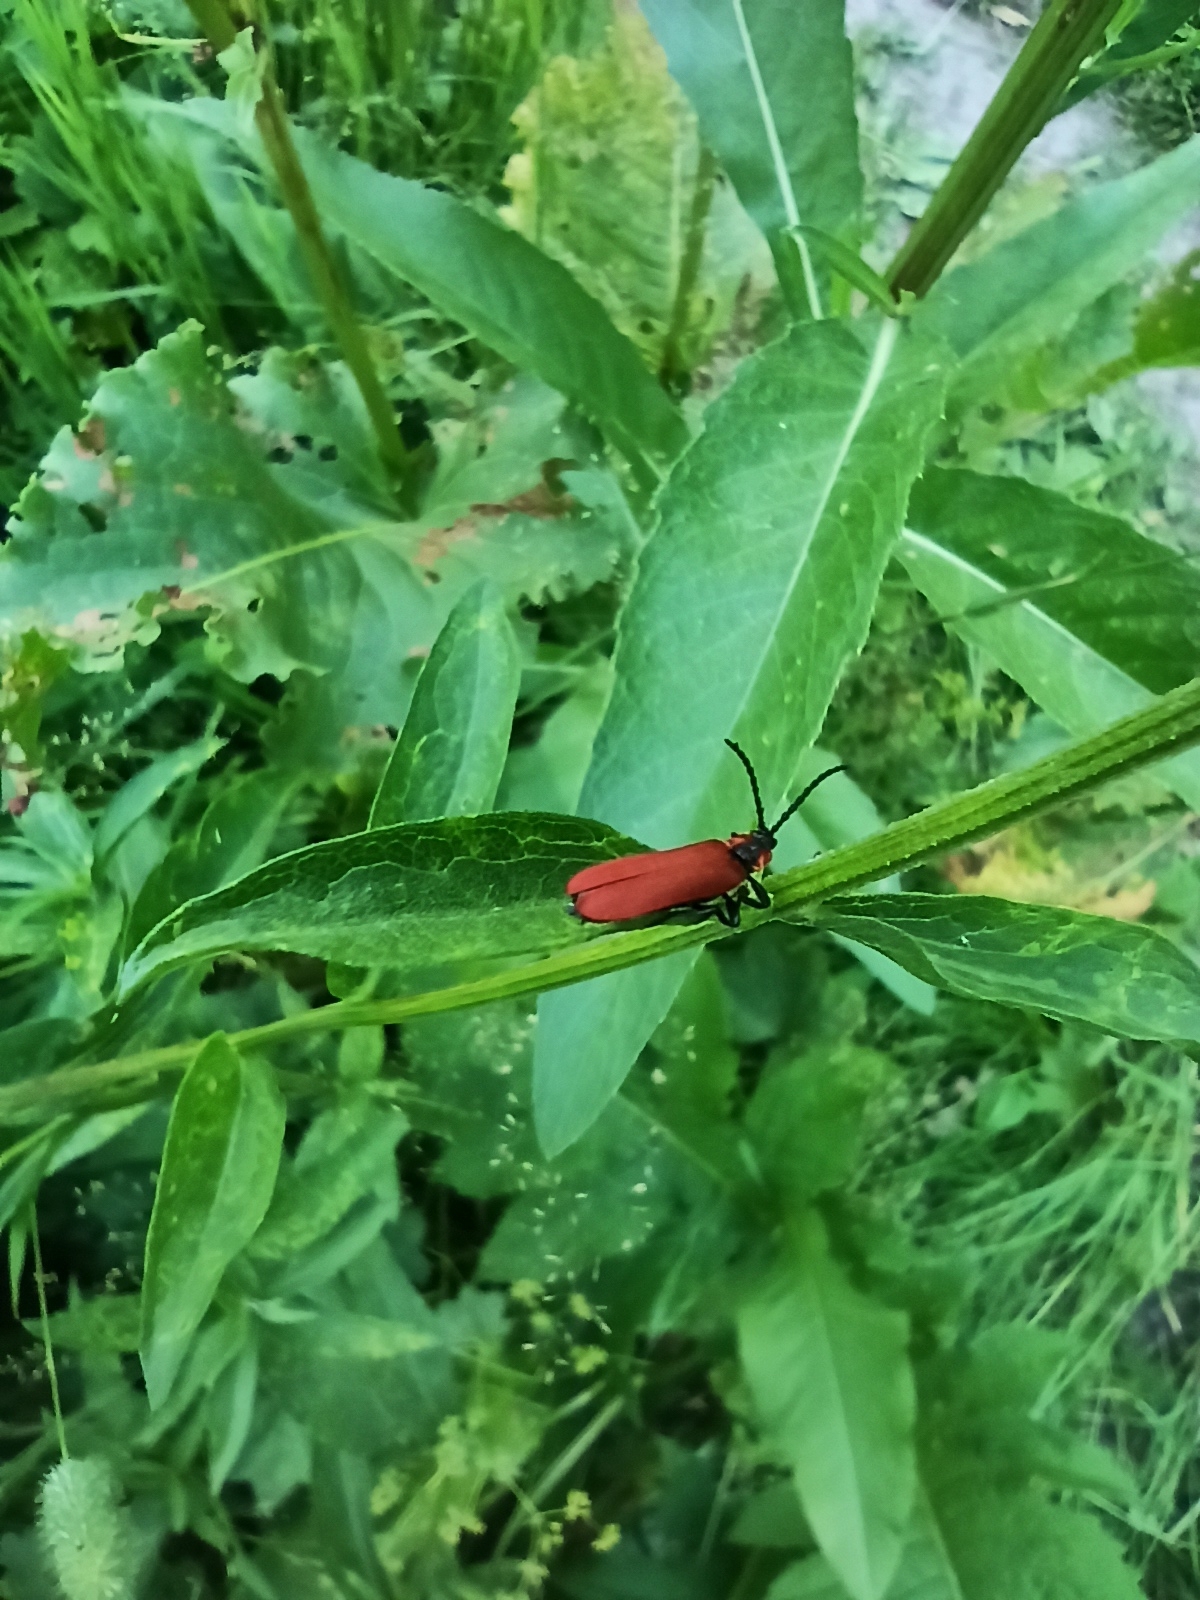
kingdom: Animalia
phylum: Arthropoda
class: Insecta
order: Coleoptera
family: Lycidae
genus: Lygistopterus
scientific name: Lygistopterus sanguineus
